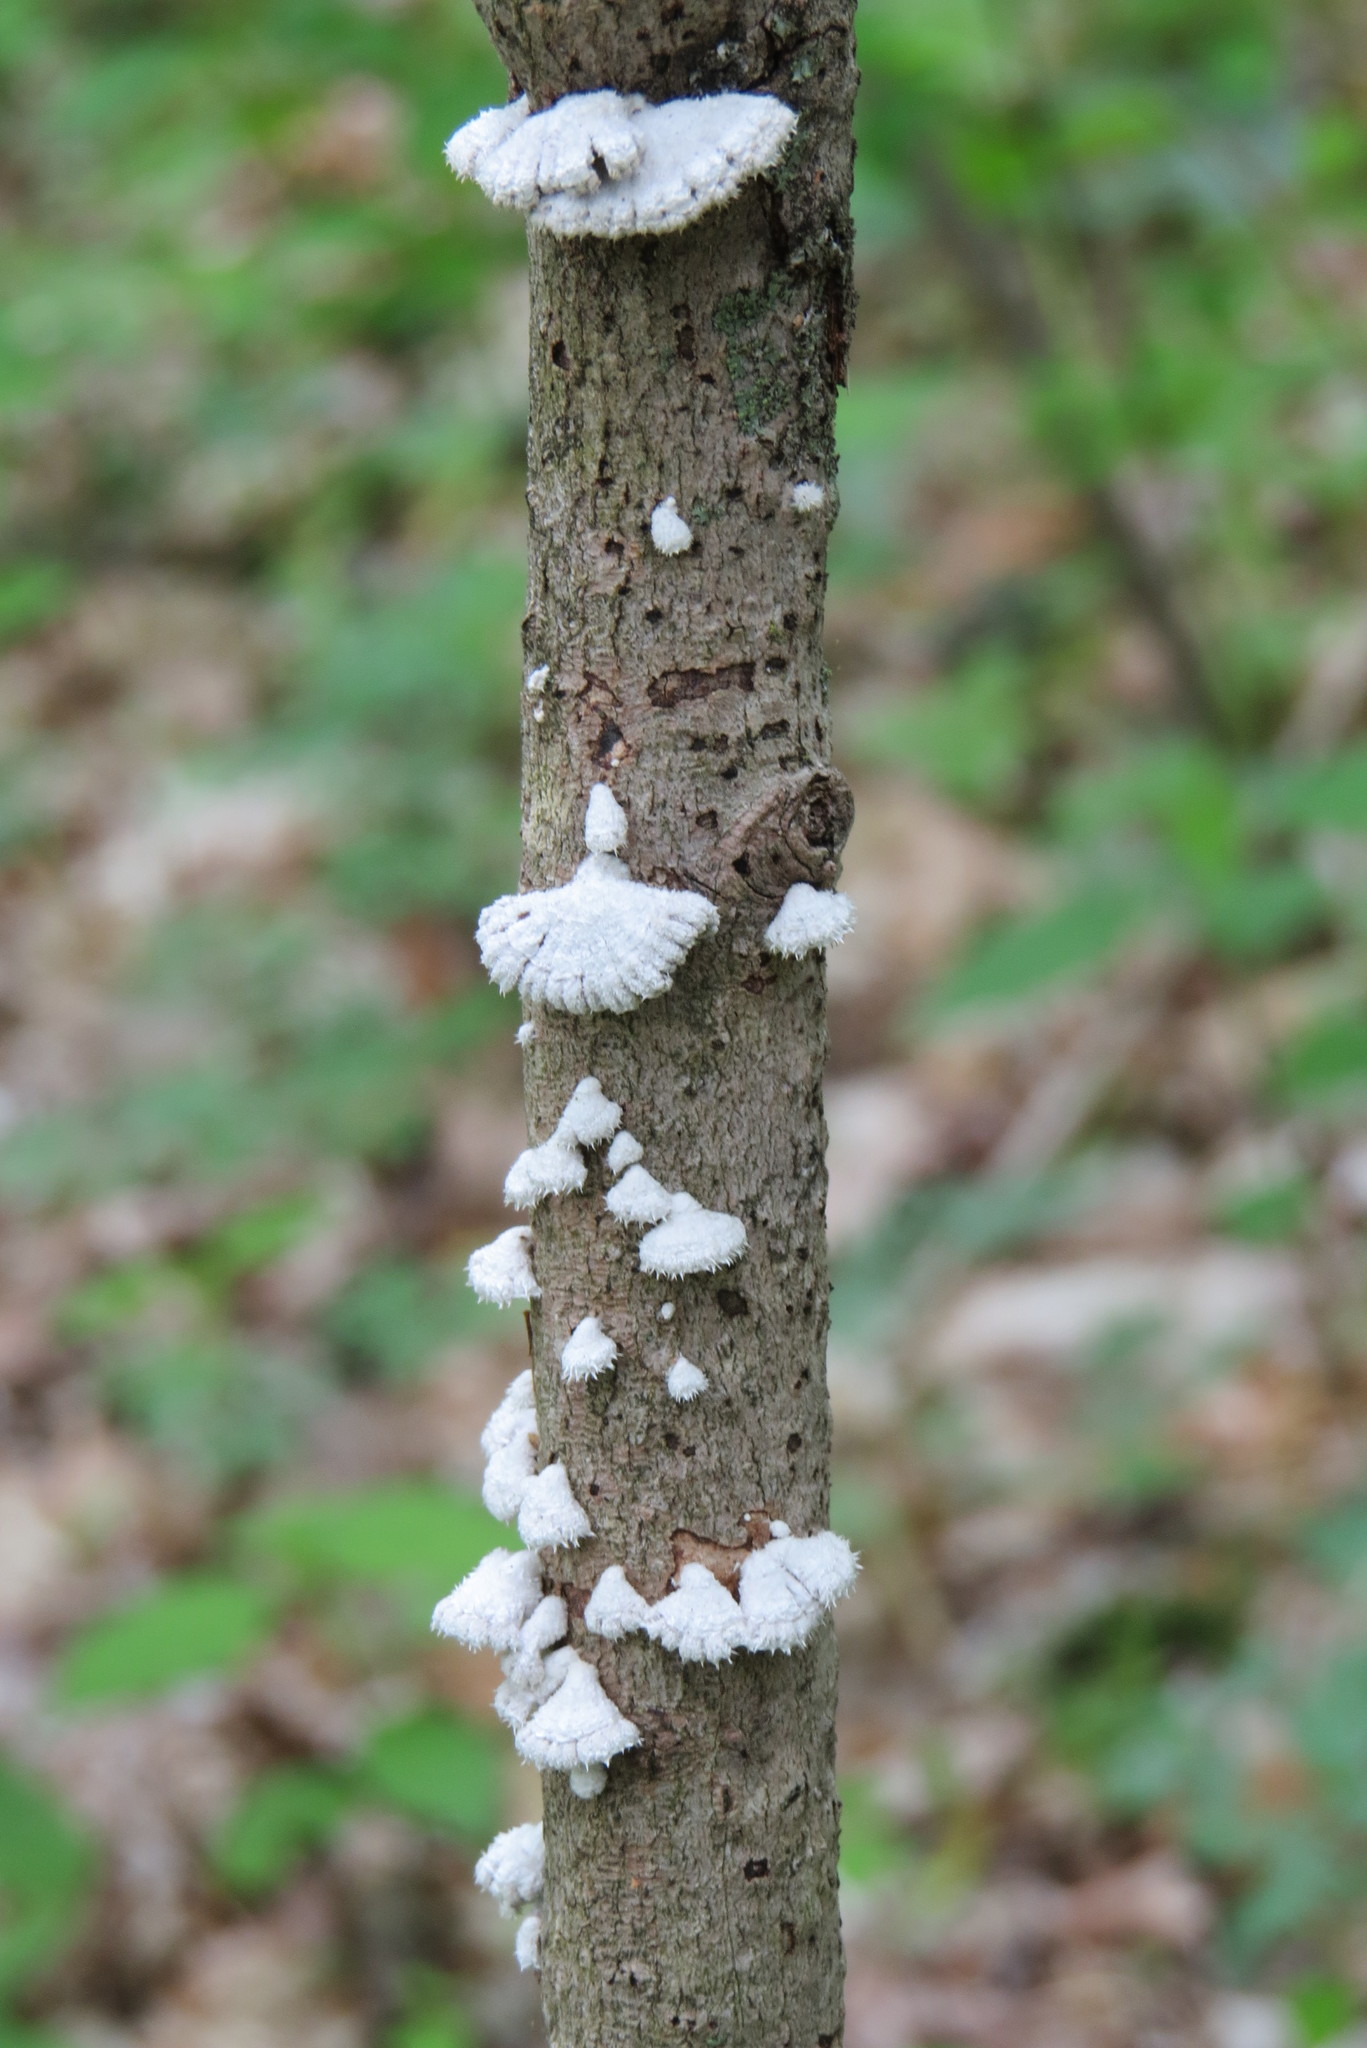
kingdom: Fungi
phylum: Basidiomycota
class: Agaricomycetes
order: Agaricales
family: Schizophyllaceae
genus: Schizophyllum
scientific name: Schizophyllum commune
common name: Common porecrust
